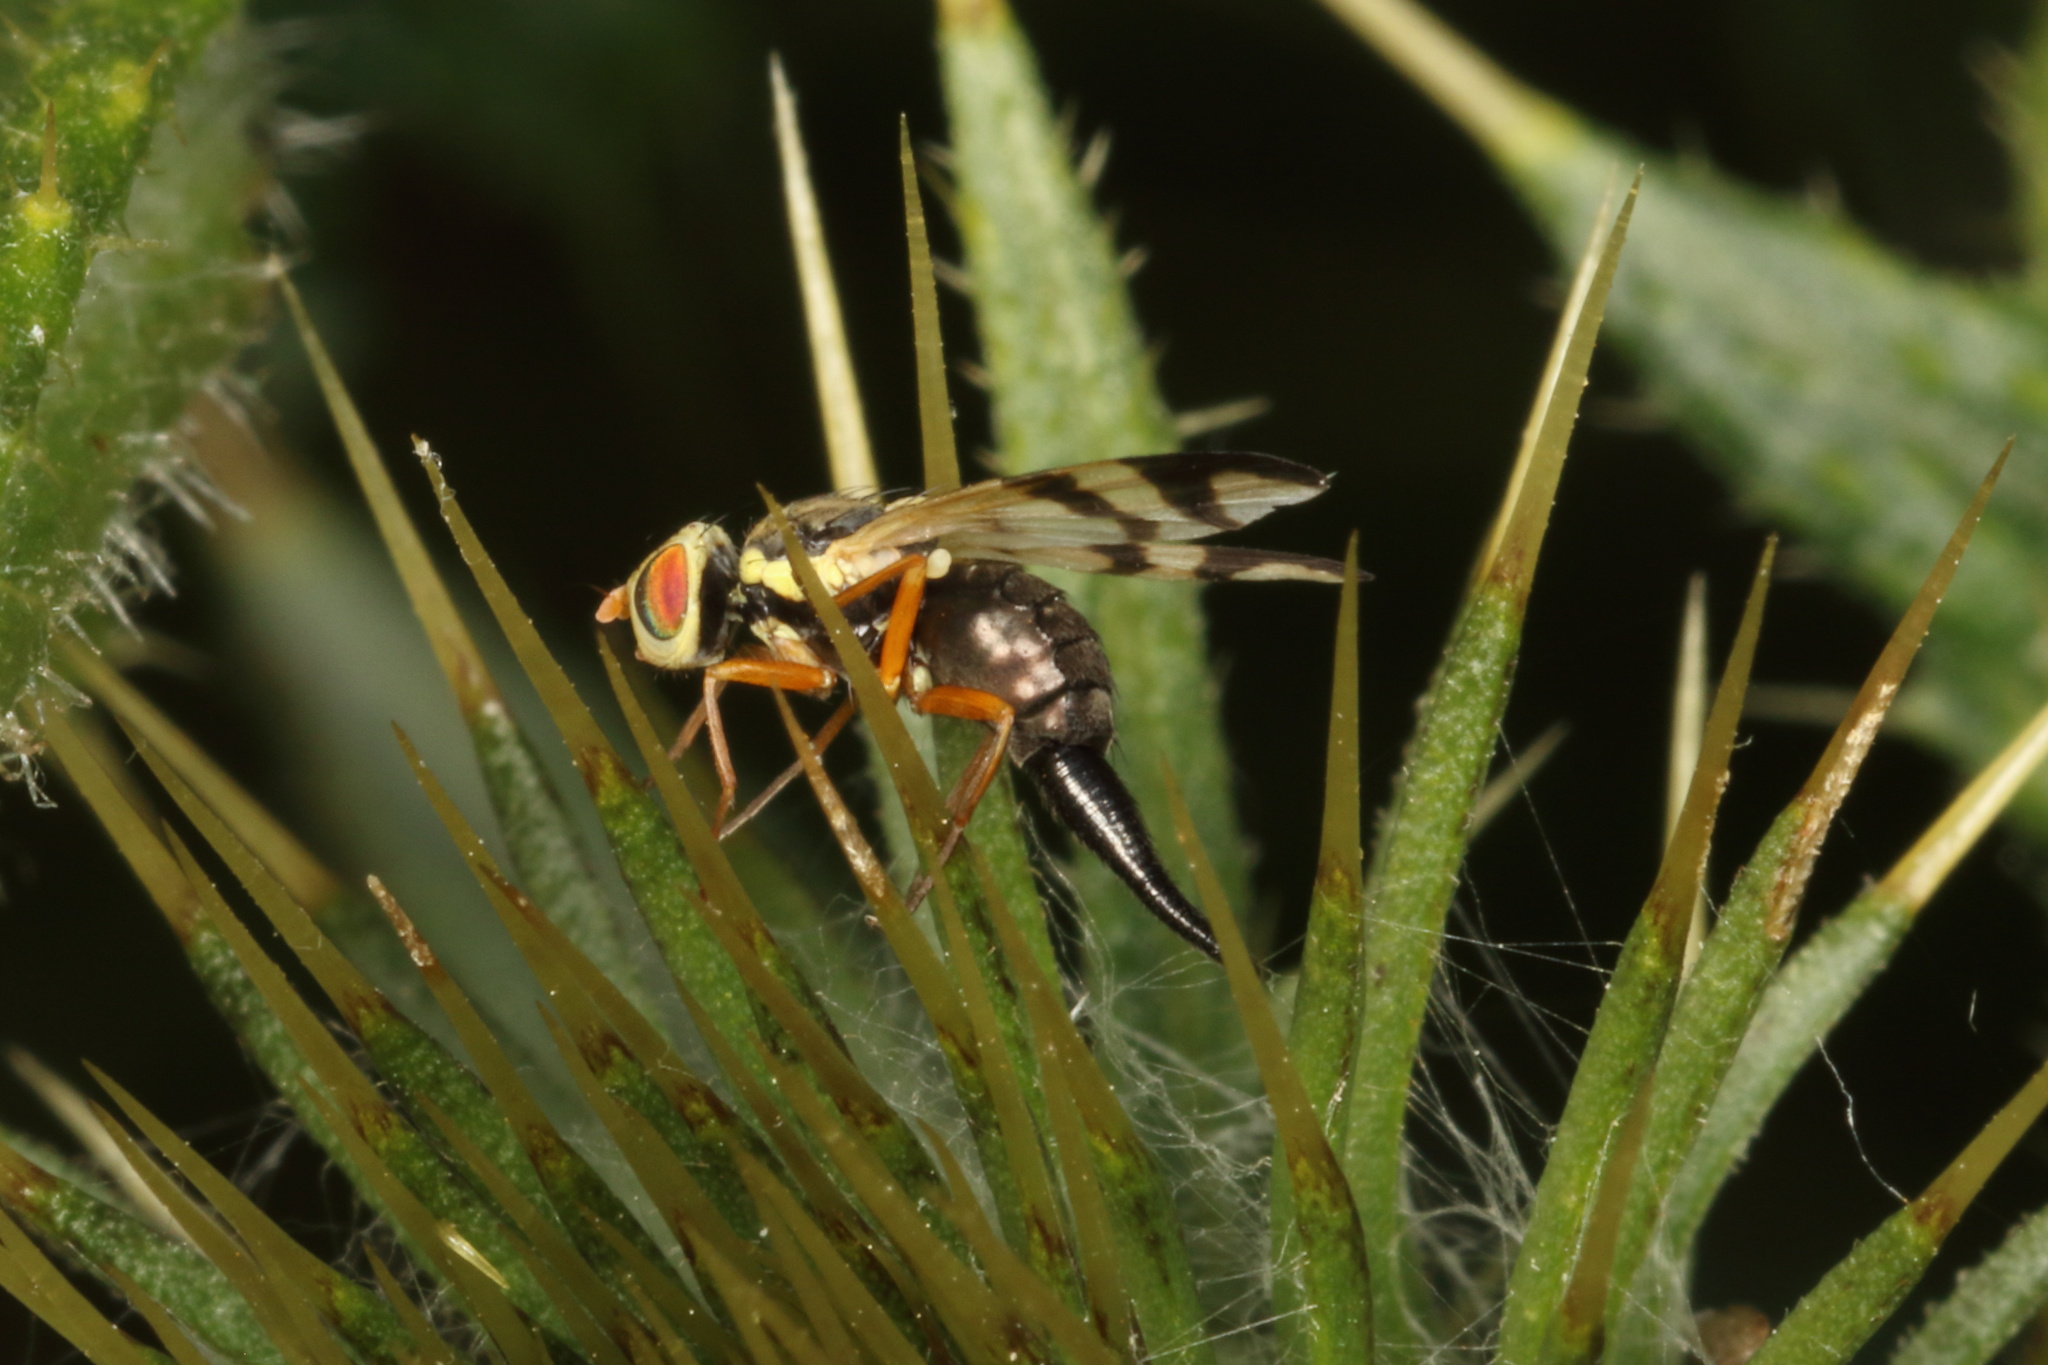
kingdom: Animalia
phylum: Arthropoda
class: Insecta
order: Diptera
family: Tephritidae
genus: Urophora
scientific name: Urophora stylata
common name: Fruit fly
